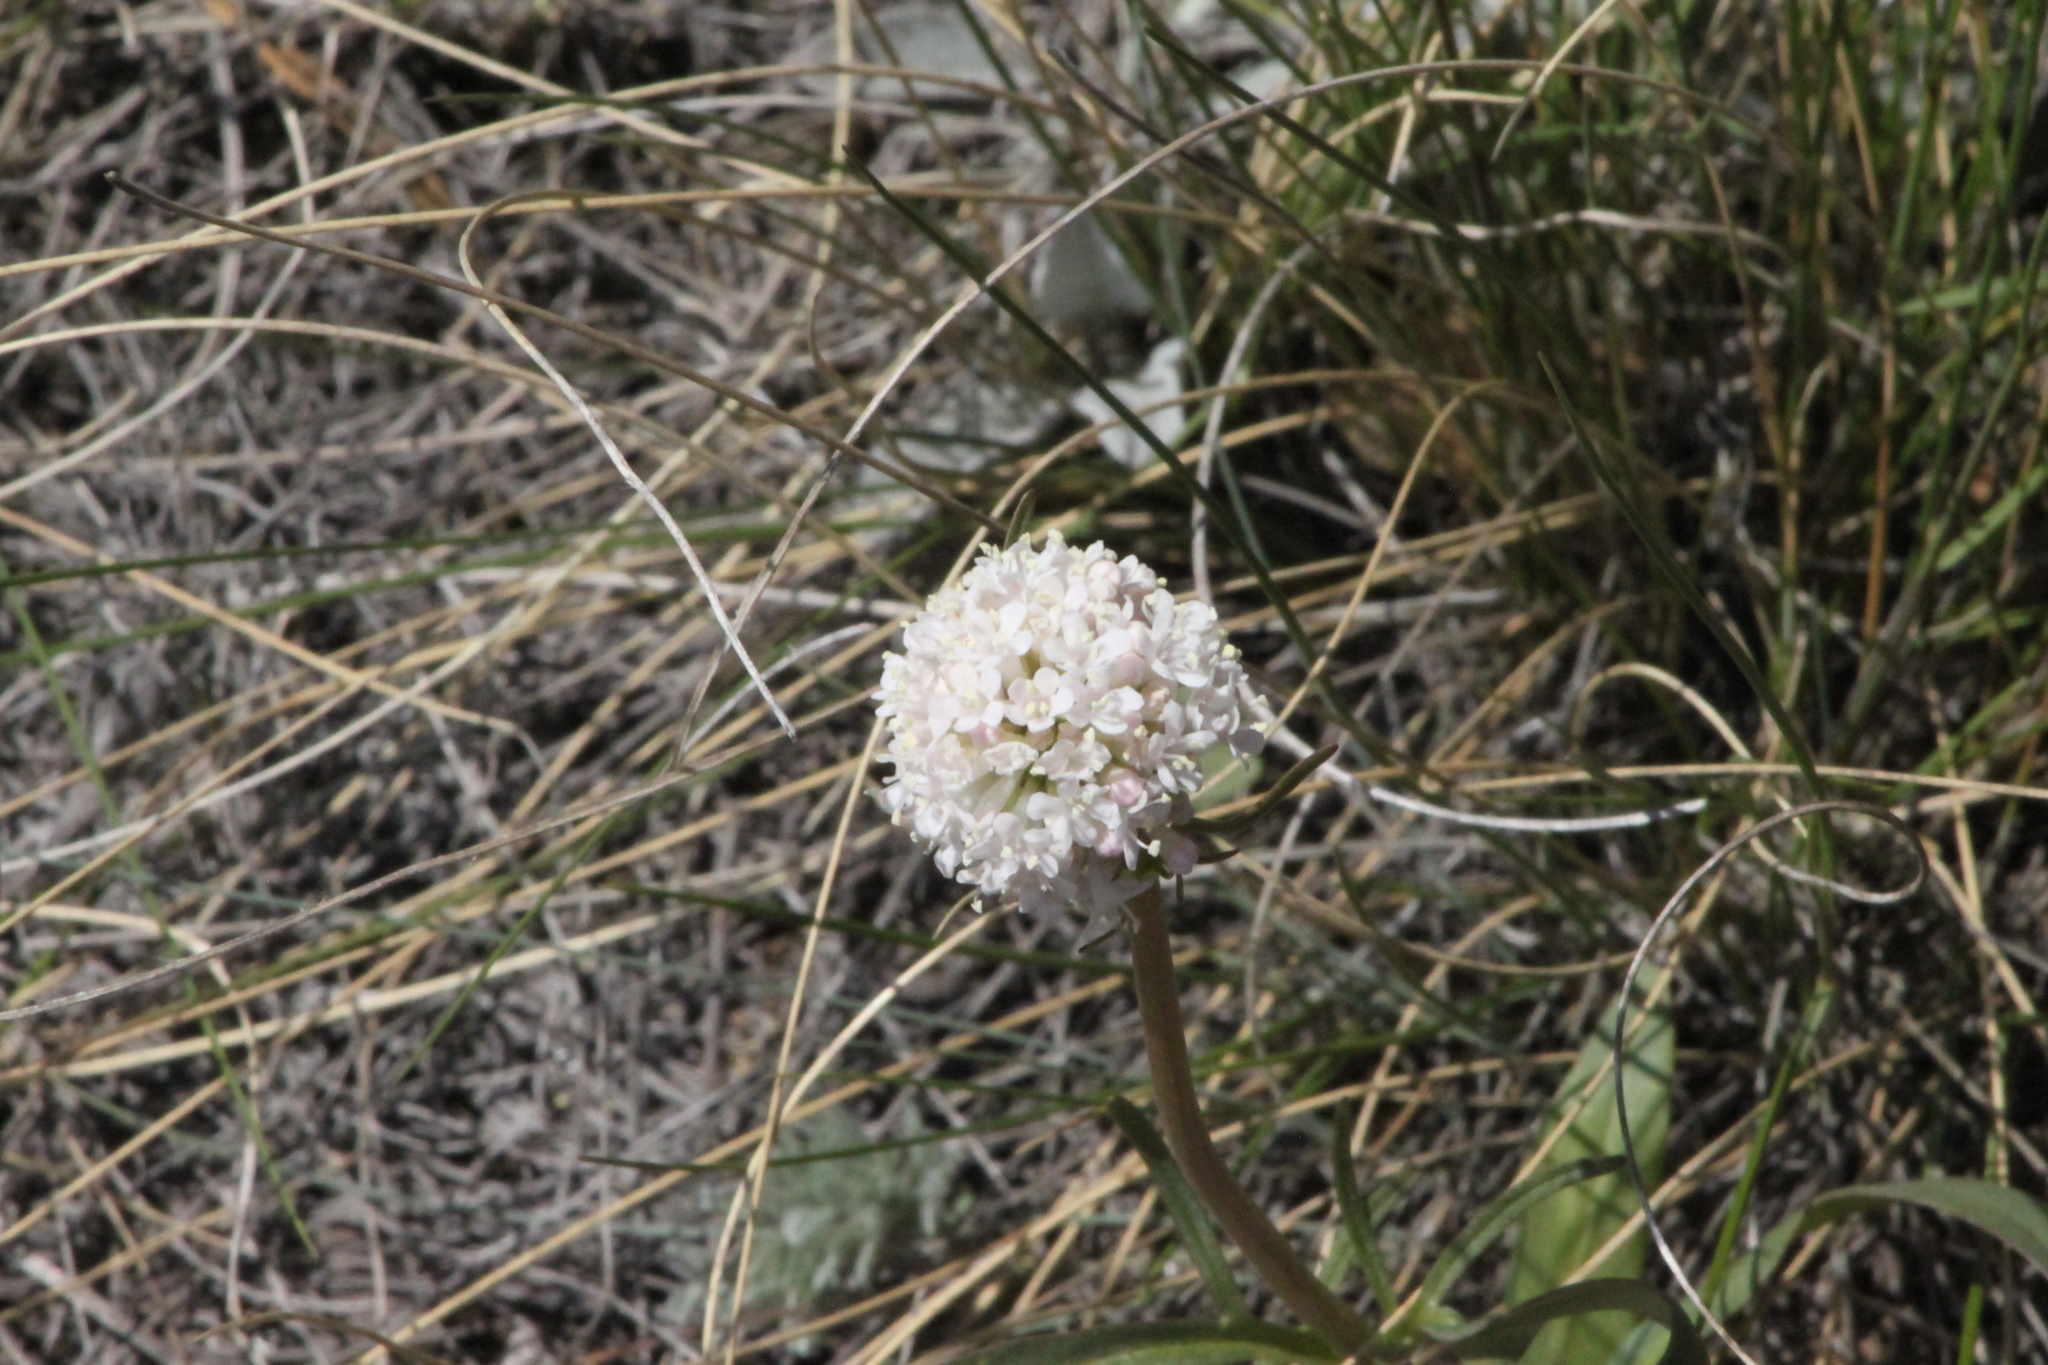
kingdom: Plantae
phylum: Tracheophyta
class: Magnoliopsida
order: Dipsacales
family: Caprifoliaceae
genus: Valeriana
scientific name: Valeriana tuberosa
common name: Tuberous valerian
